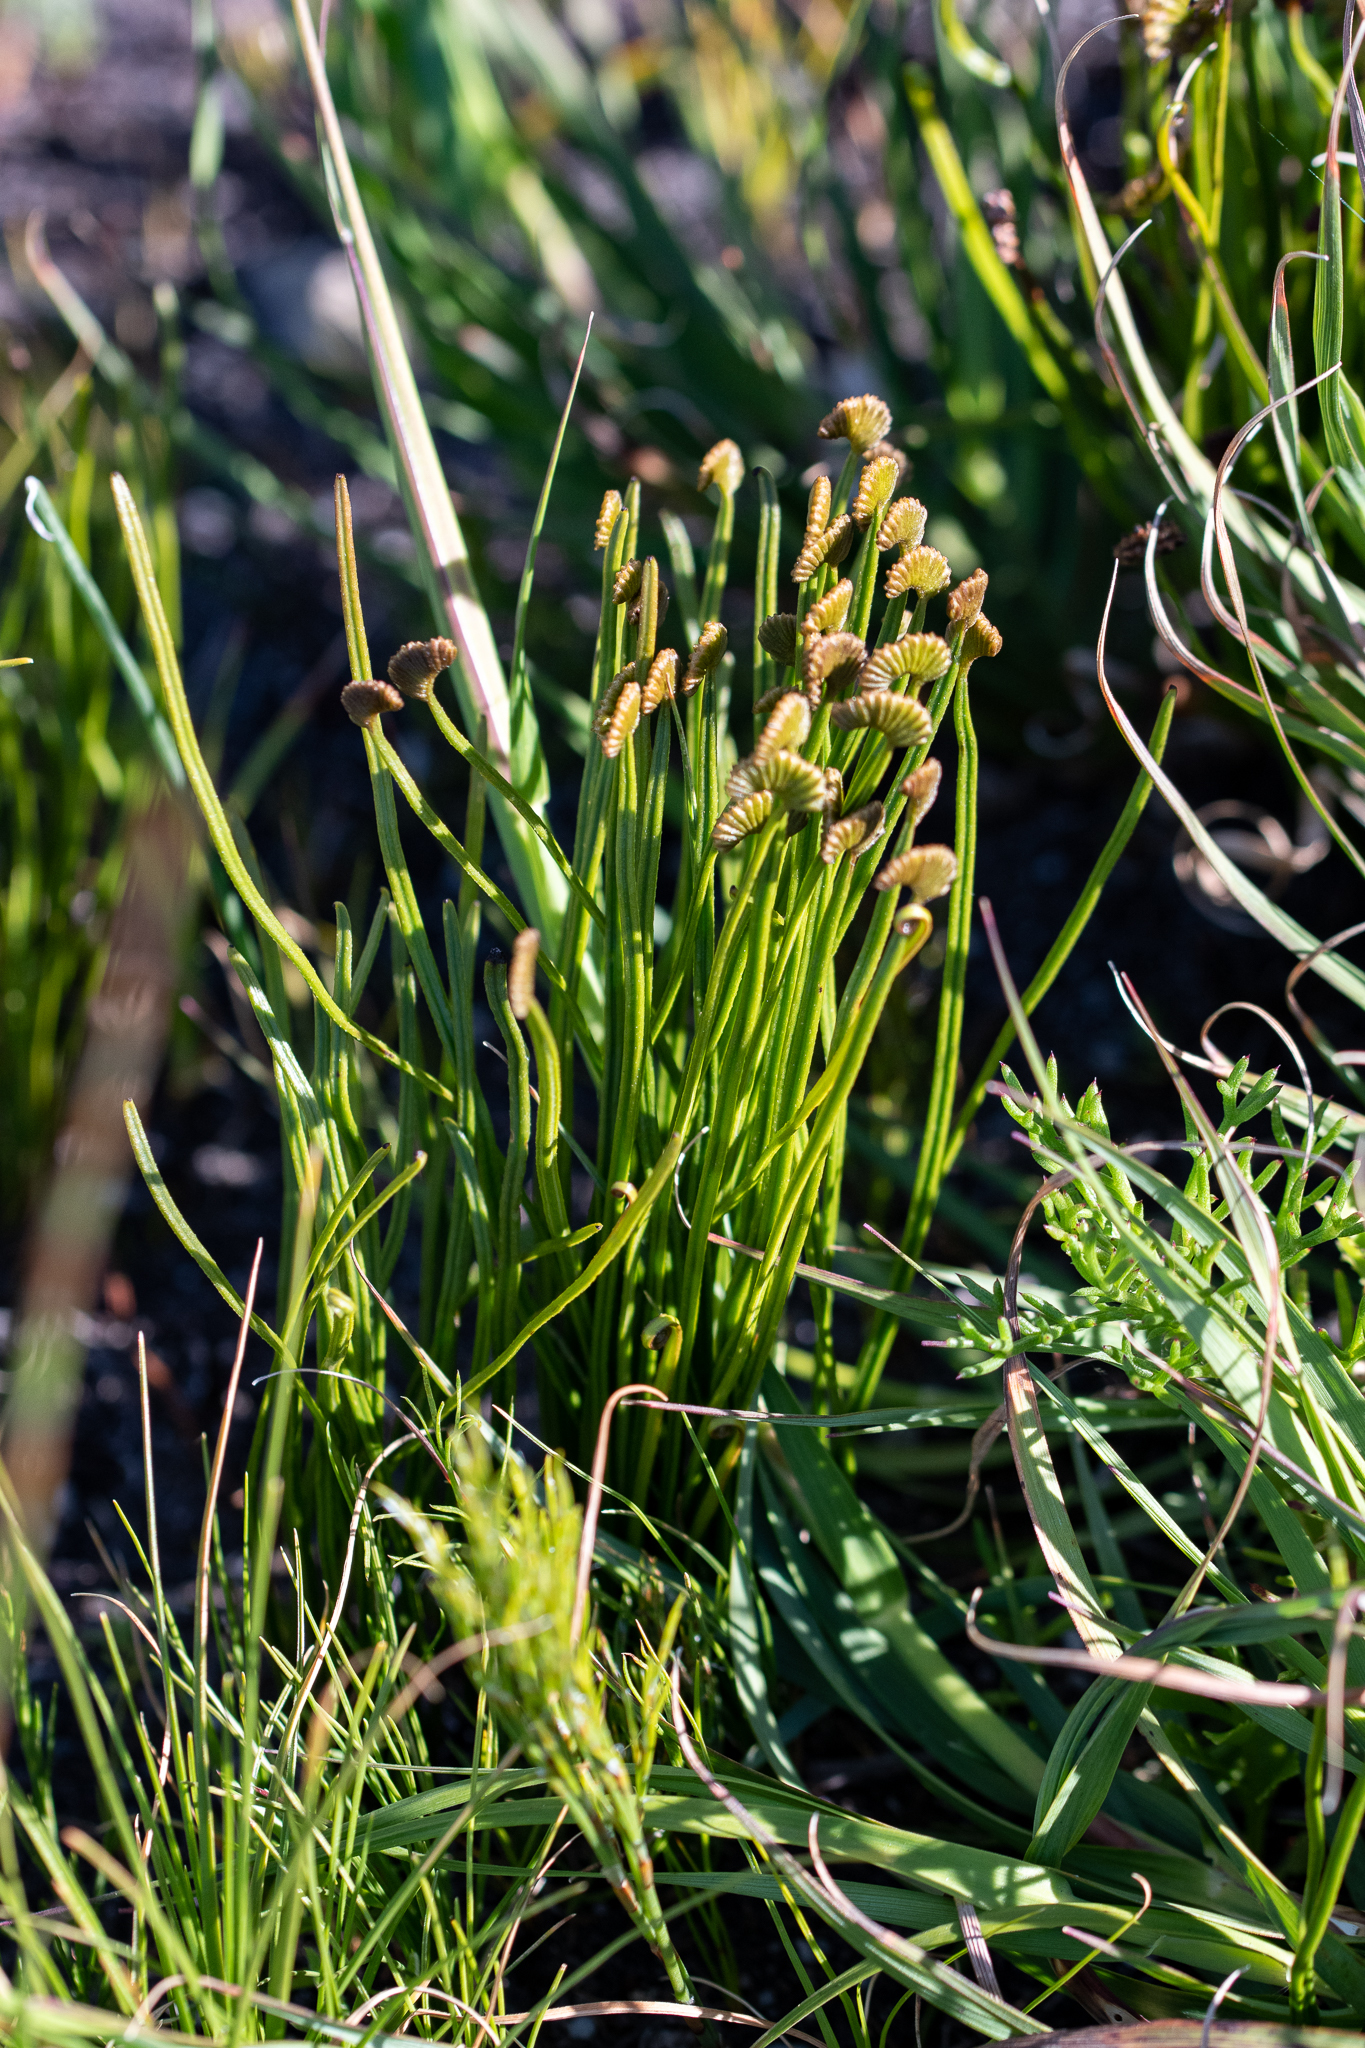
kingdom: Plantae
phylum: Tracheophyta
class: Polypodiopsida
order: Schizaeales
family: Schizaeaceae
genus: Schizaea
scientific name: Schizaea pectinata
